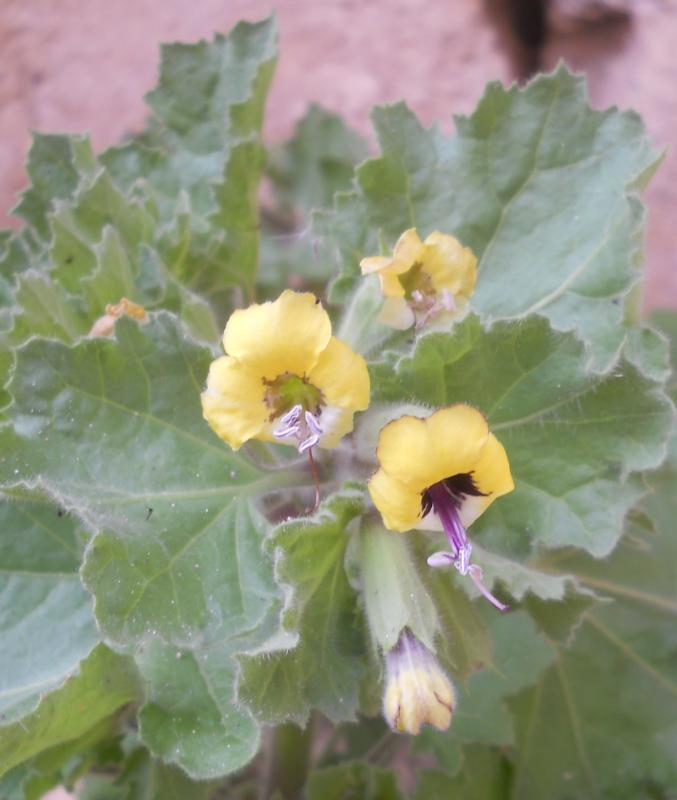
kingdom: Plantae
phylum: Tracheophyta
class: Magnoliopsida
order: Solanales
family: Solanaceae
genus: Hyoscyamus
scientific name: Hyoscyamus aureus
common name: Golden henbane
